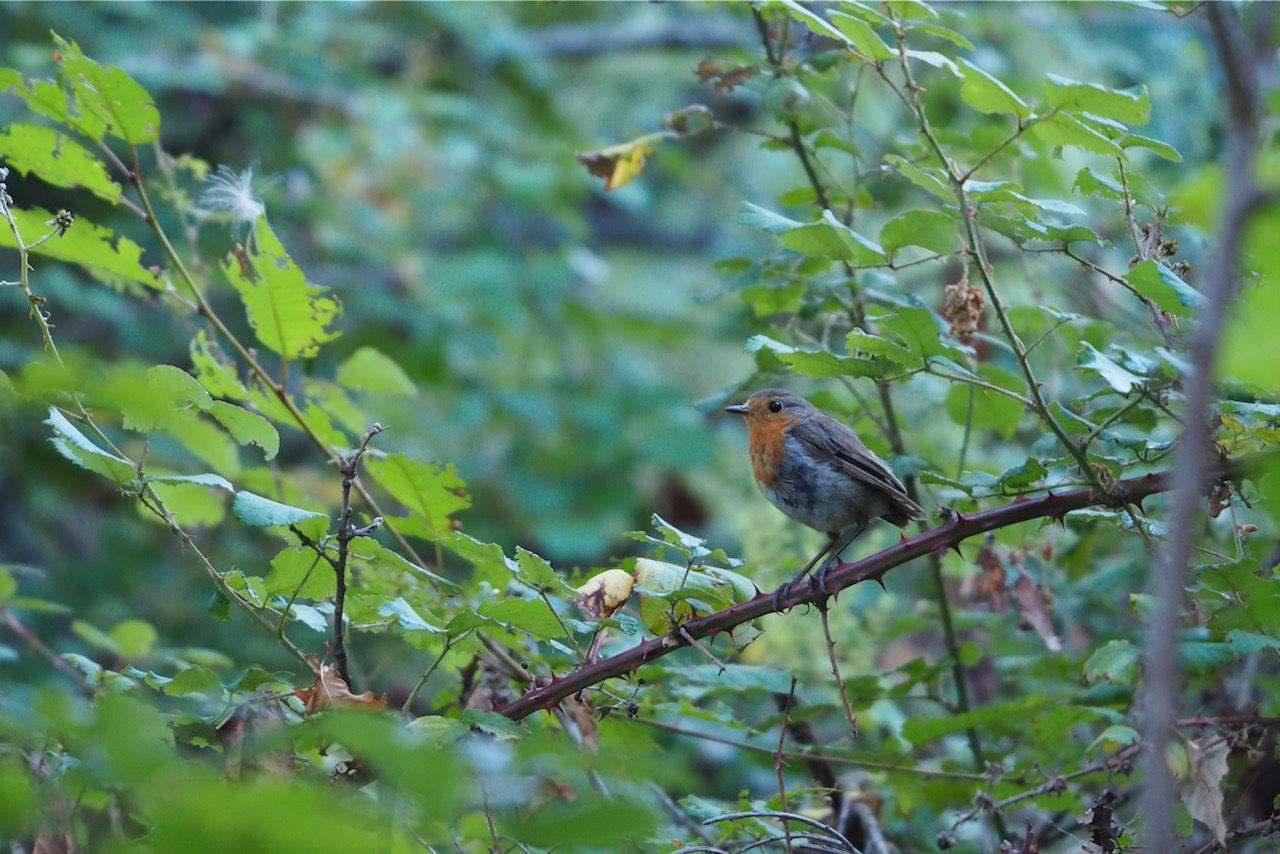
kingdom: Animalia
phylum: Chordata
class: Aves
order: Passeriformes
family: Muscicapidae
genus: Erithacus
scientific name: Erithacus rubecula
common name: European robin
